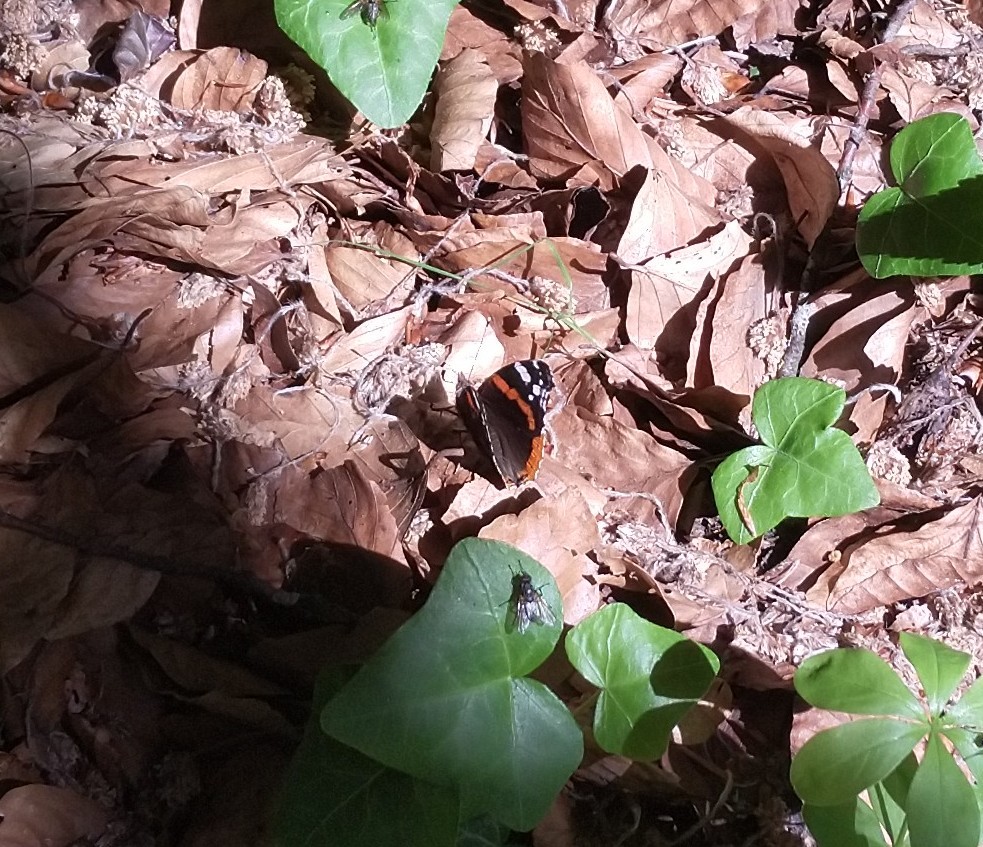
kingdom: Animalia
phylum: Arthropoda
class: Insecta
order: Lepidoptera
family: Nymphalidae
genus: Vanessa
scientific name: Vanessa atalanta
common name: Red admiral
